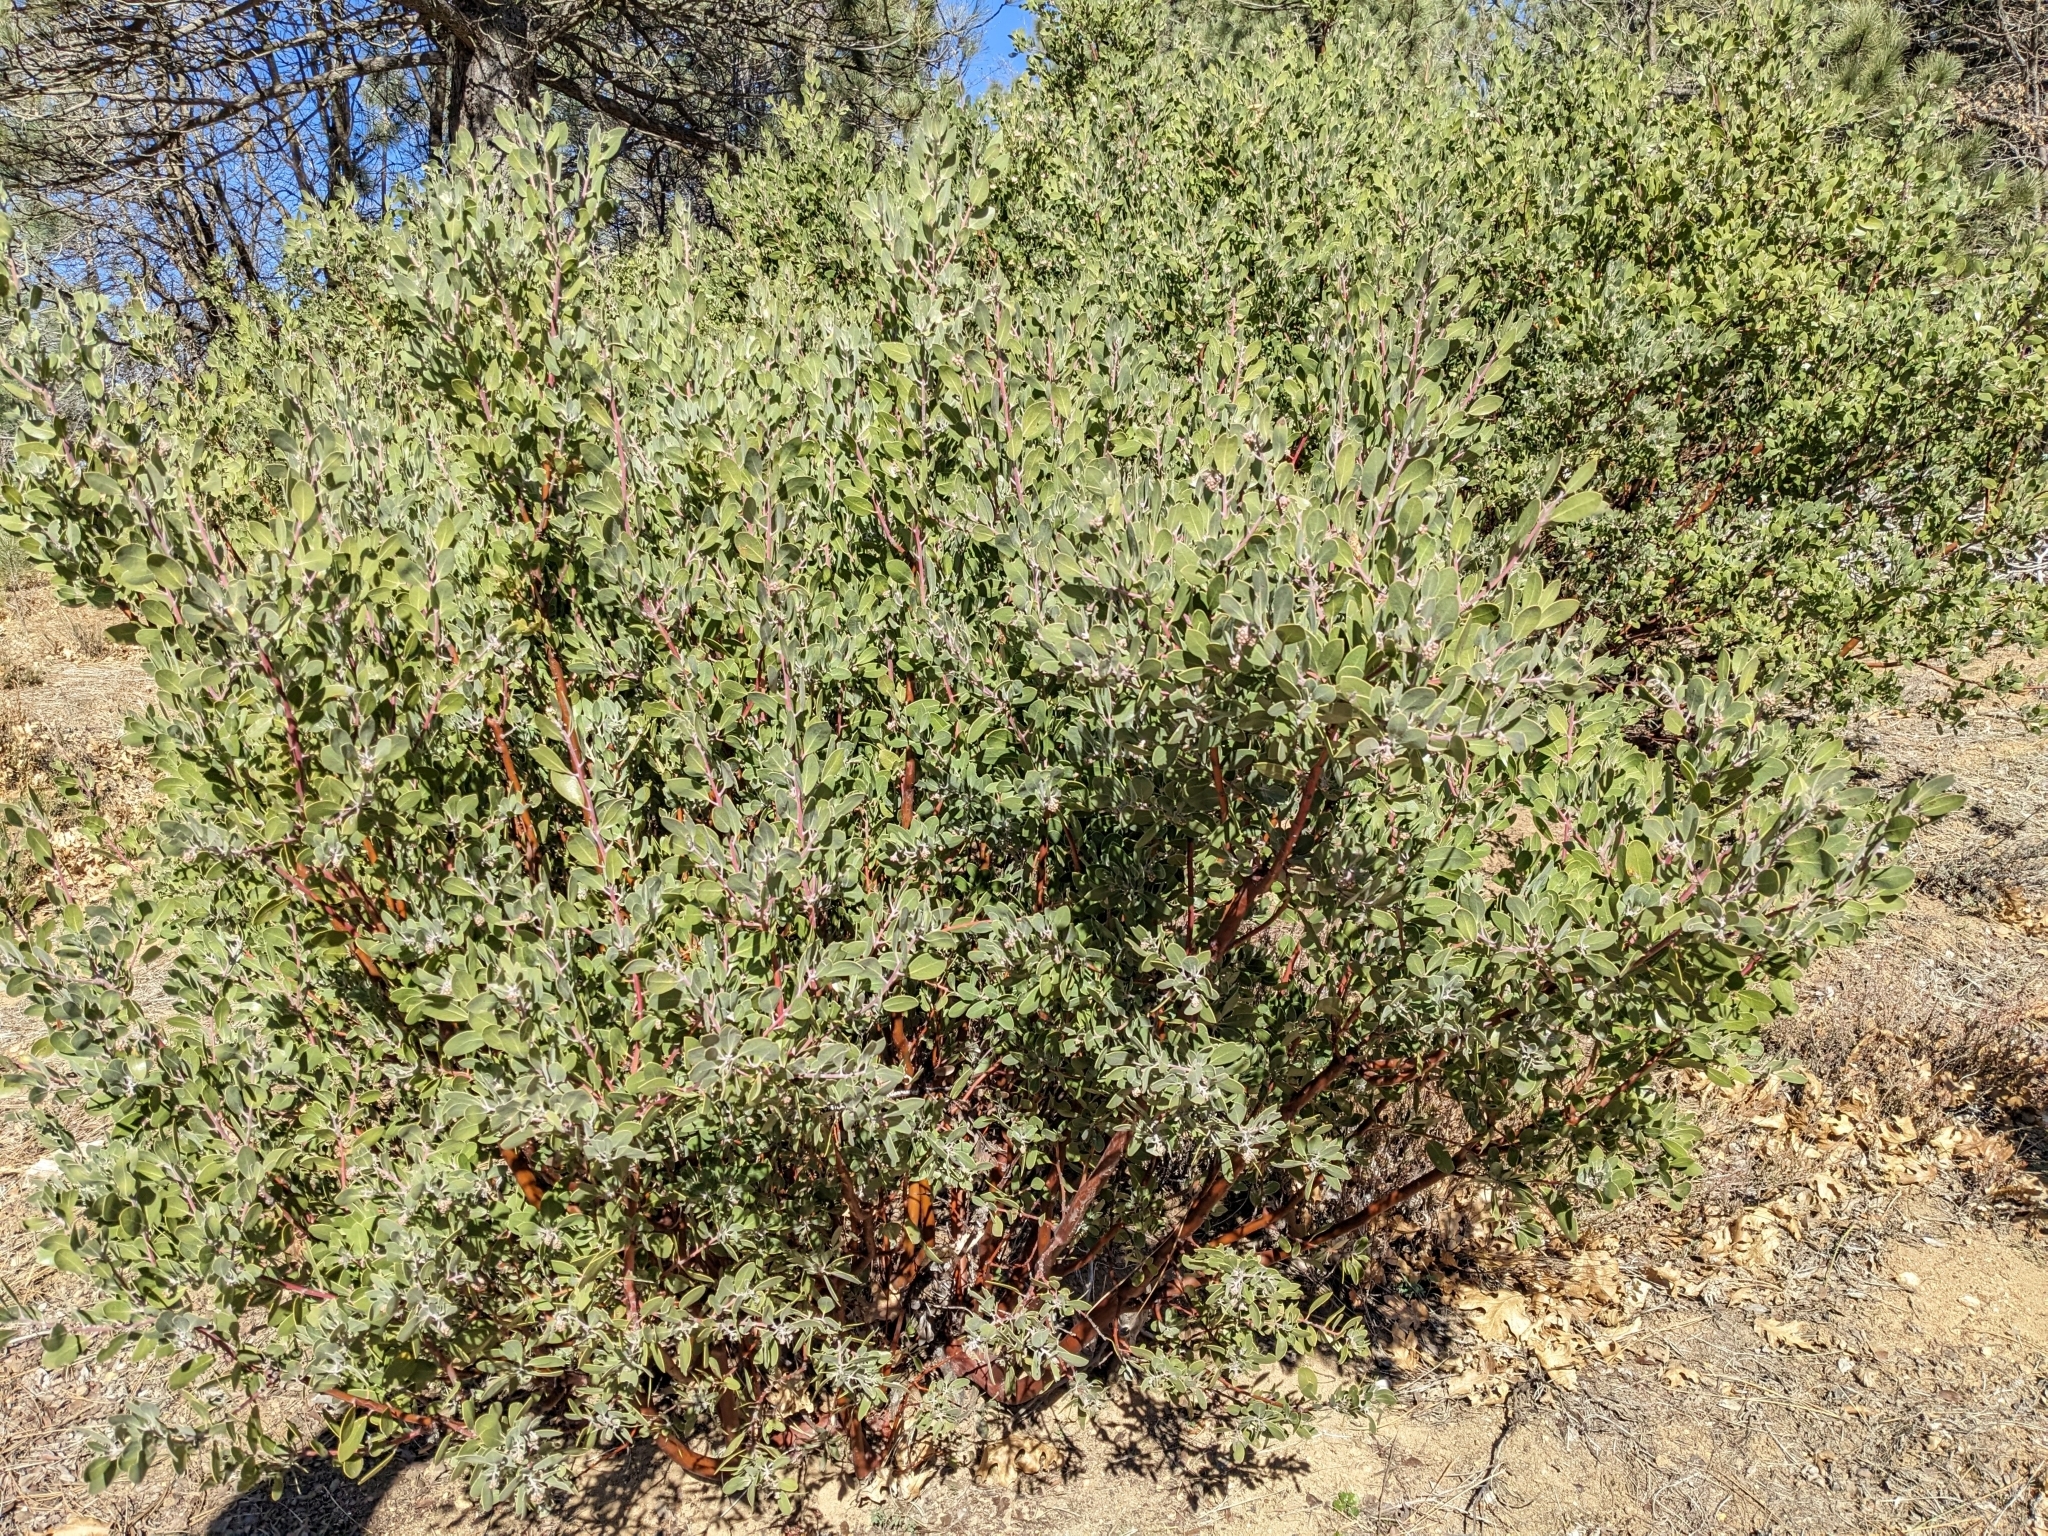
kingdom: Plantae
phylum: Tracheophyta
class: Magnoliopsida
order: Ericales
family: Ericaceae
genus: Arctostaphylos
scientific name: Arctostaphylos pungens
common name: Mexican manzanita
